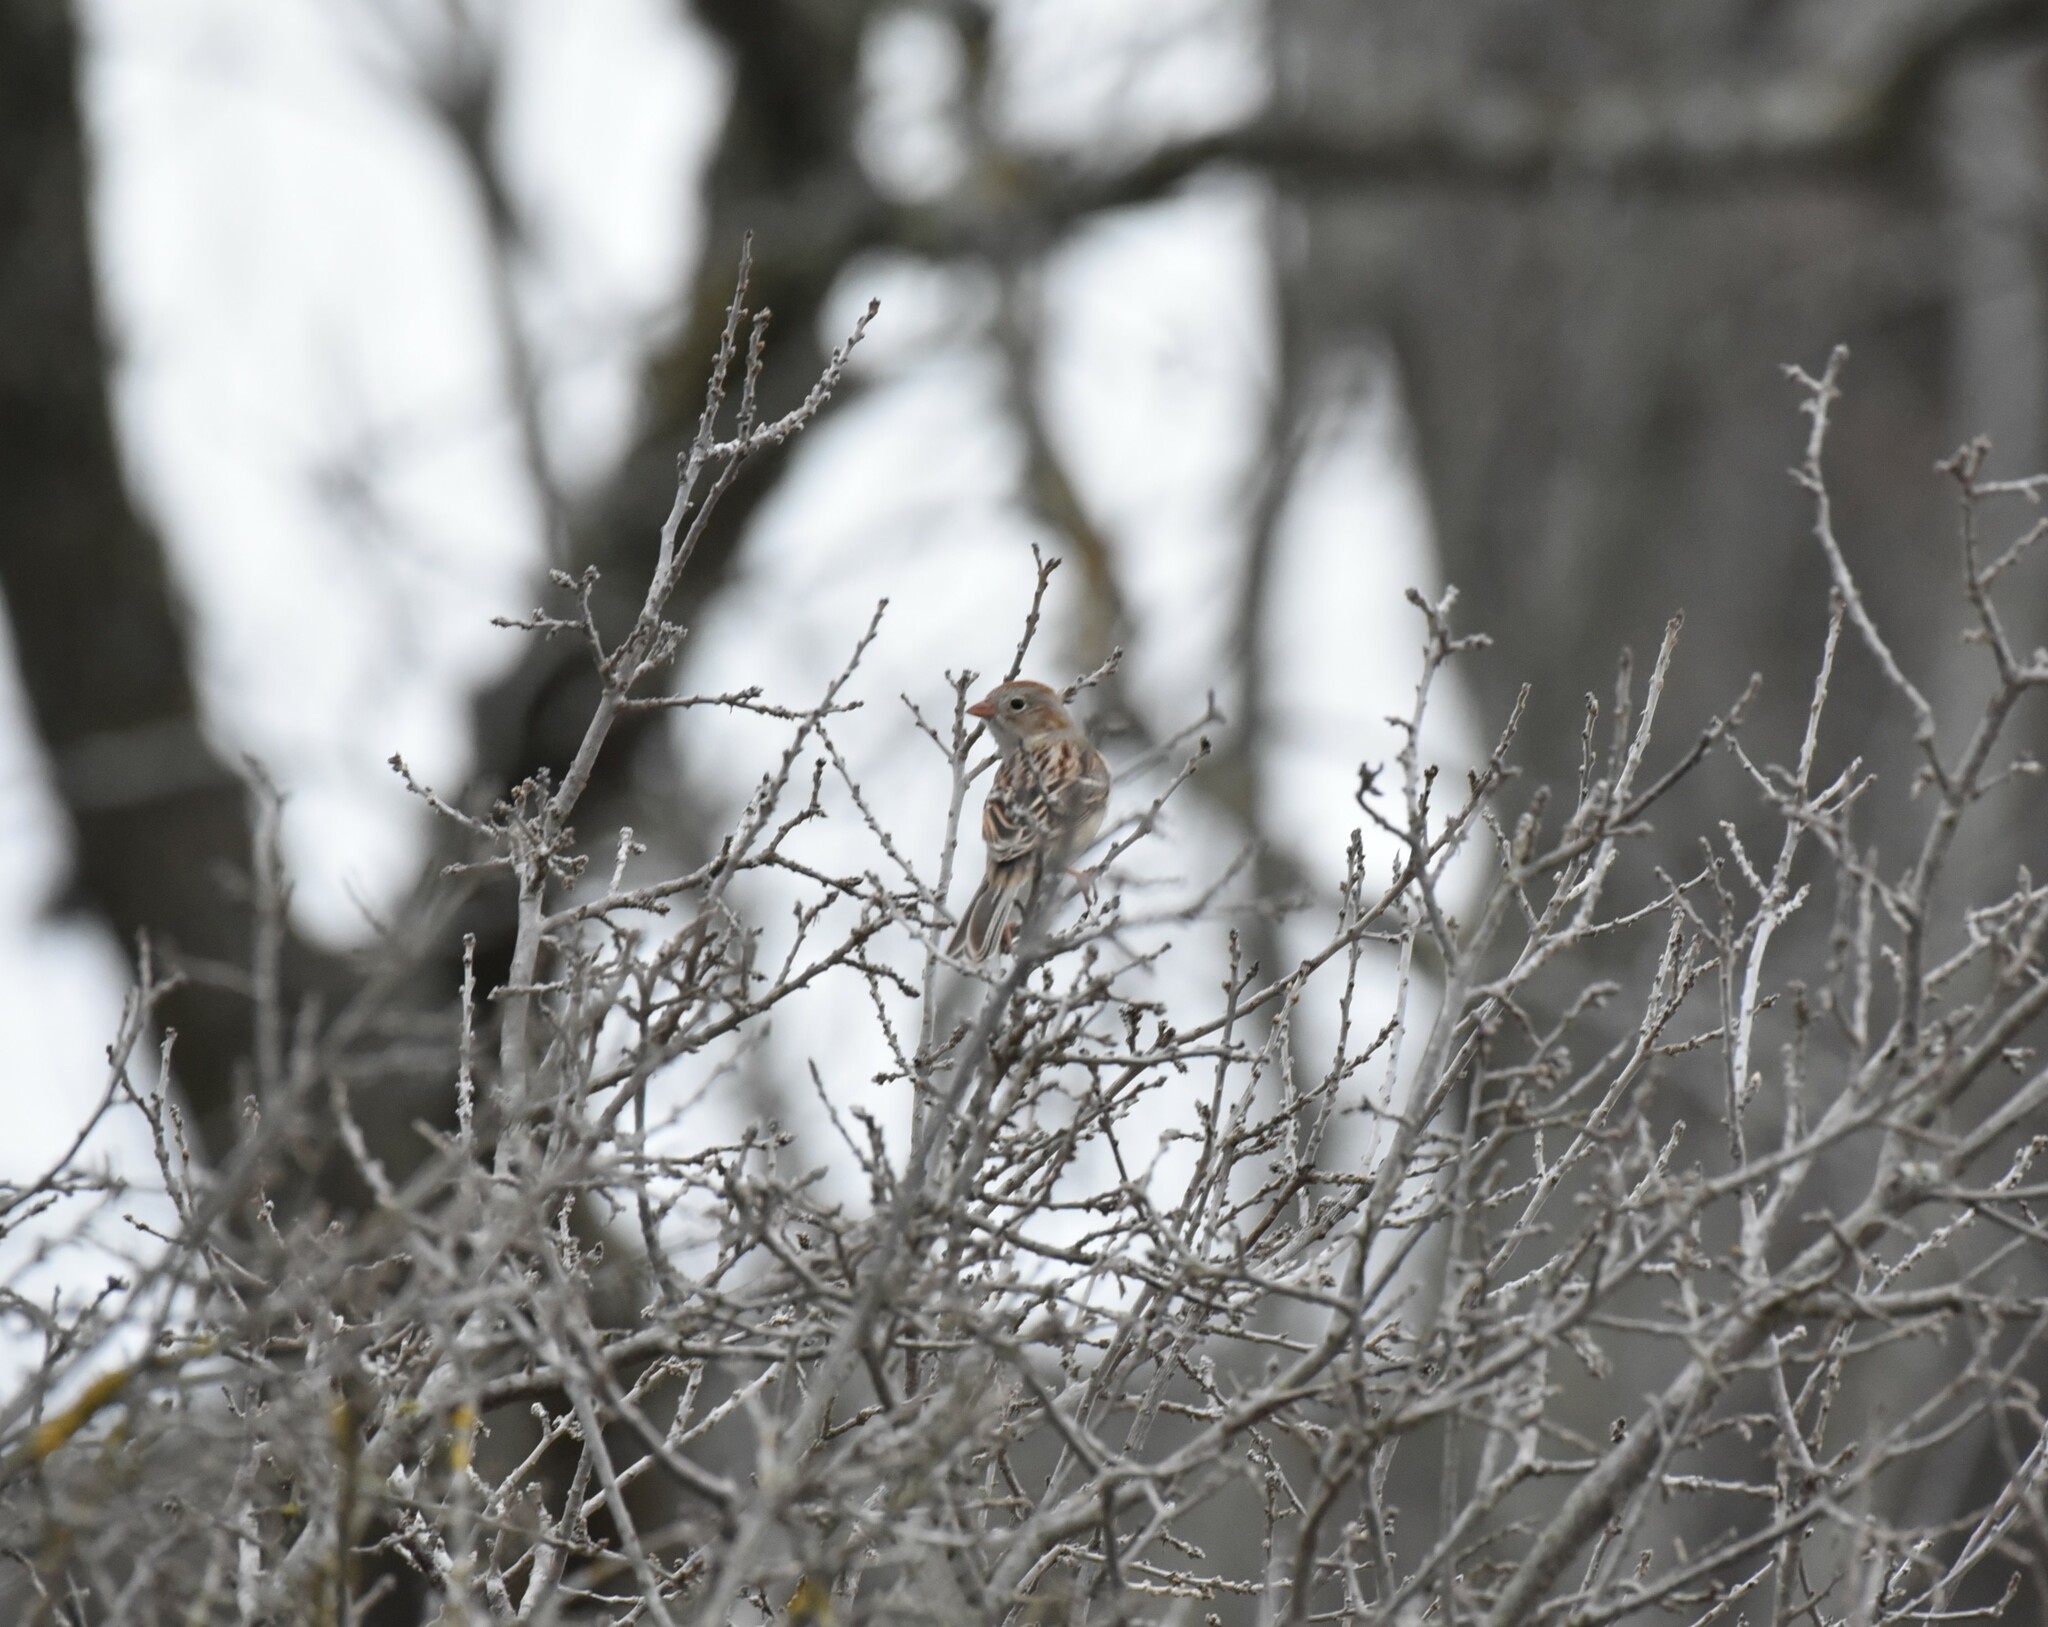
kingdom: Animalia
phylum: Chordata
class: Aves
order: Passeriformes
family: Passerellidae
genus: Spizella
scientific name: Spizella pusilla
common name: Field sparrow
